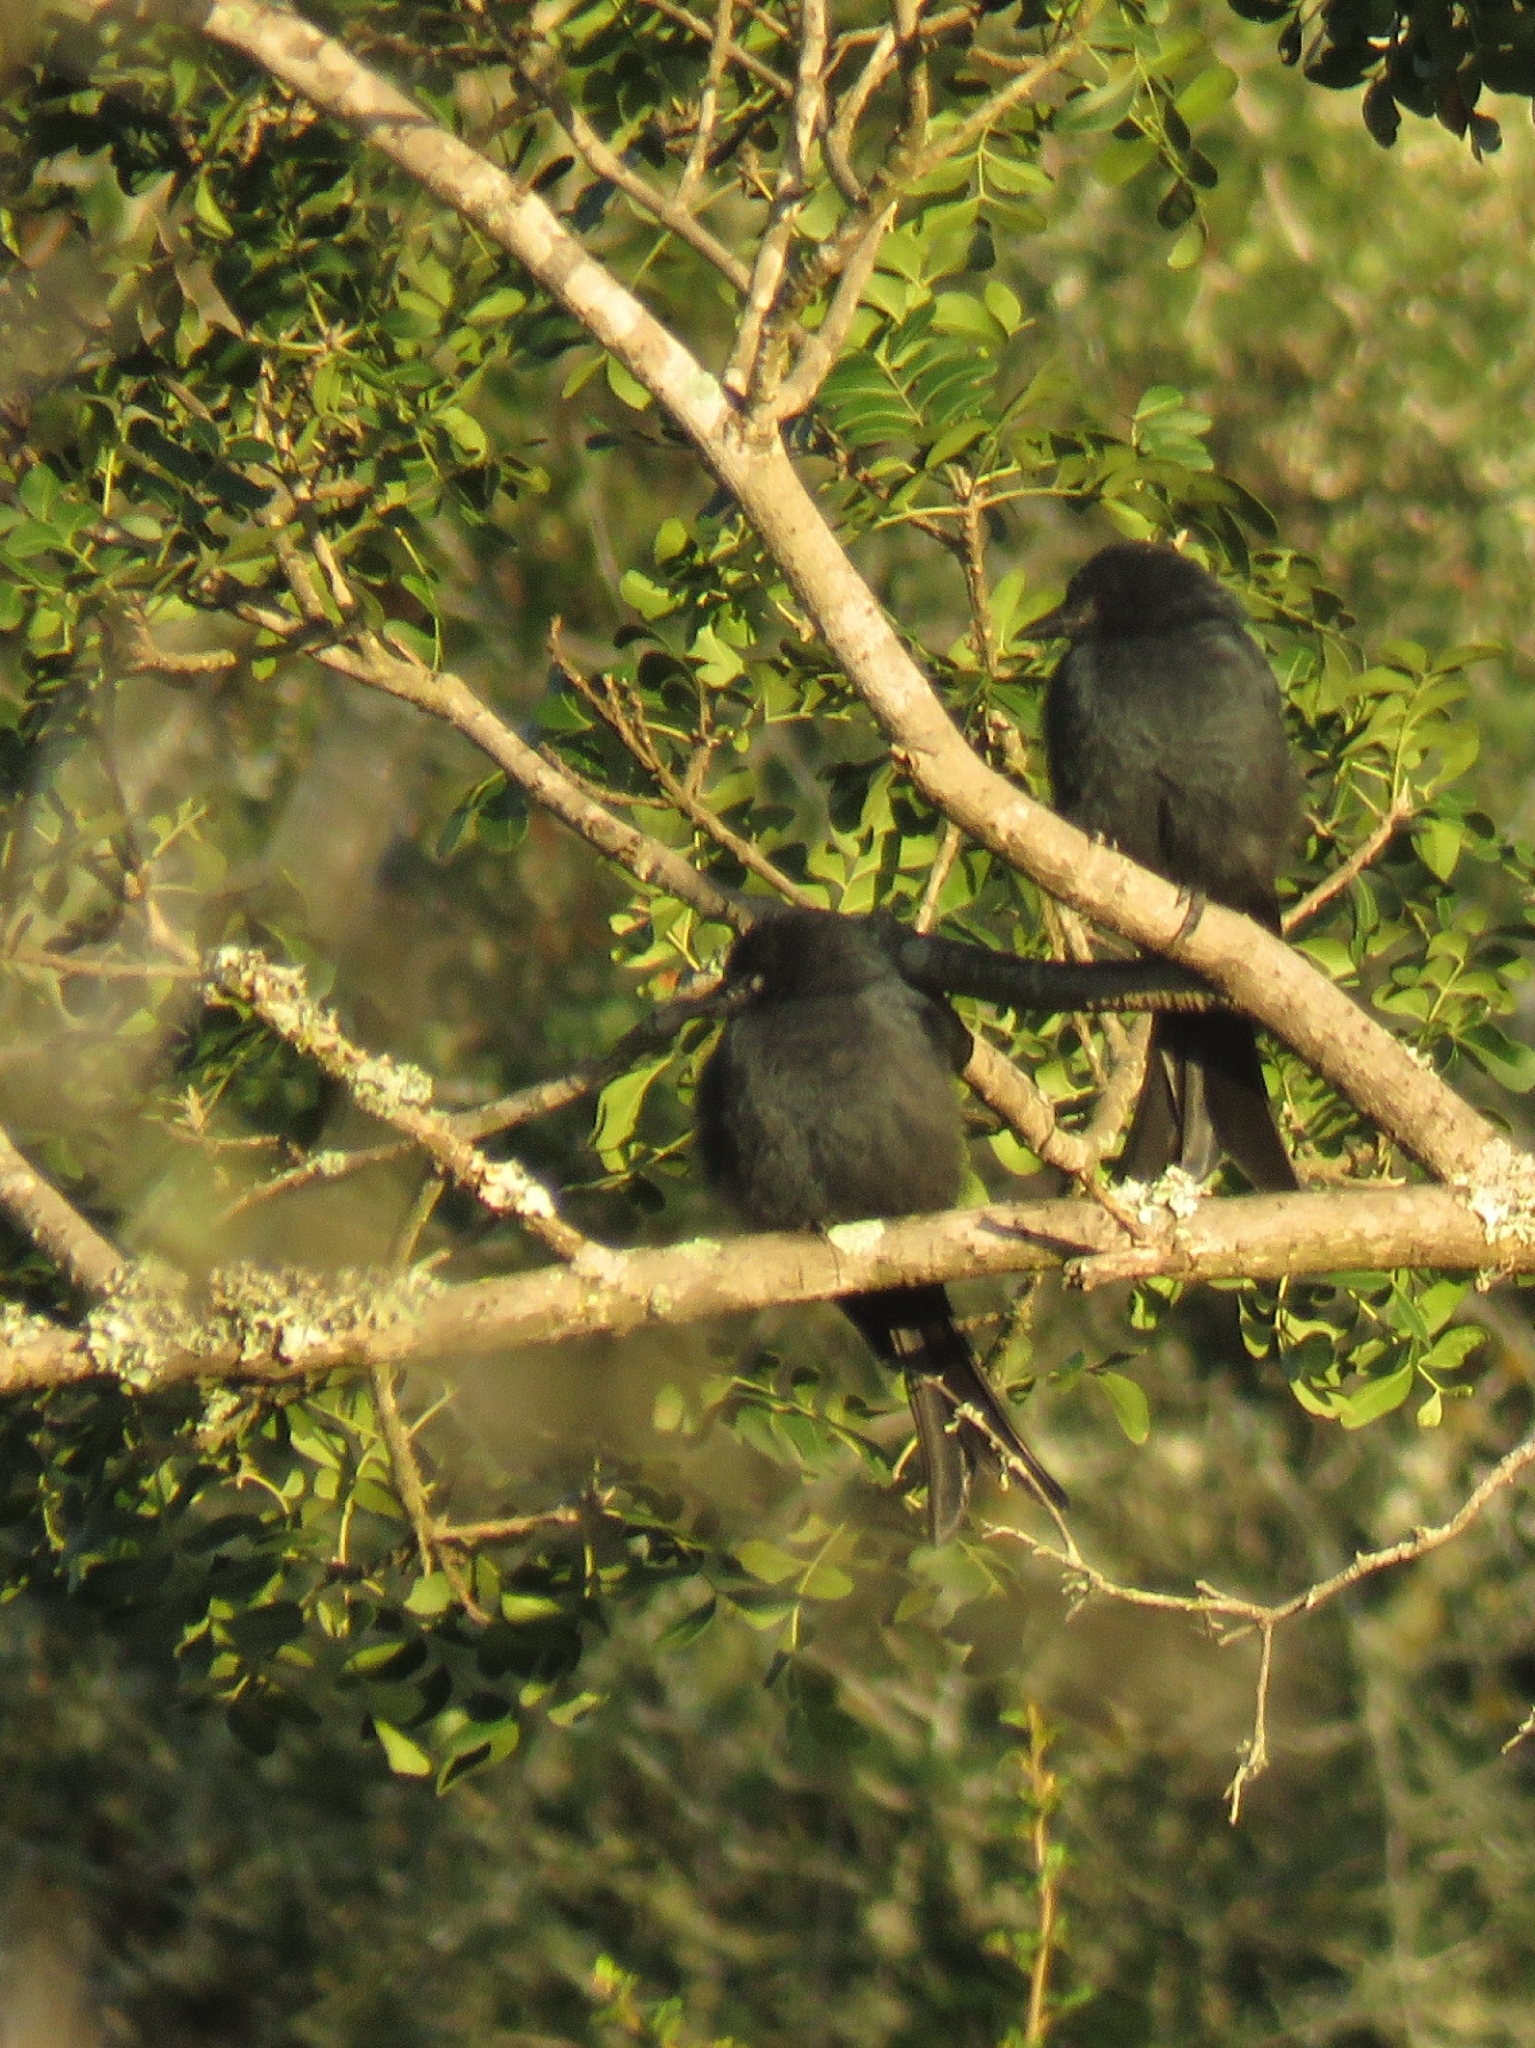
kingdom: Animalia
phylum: Chordata
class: Aves
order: Passeriformes
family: Dicruridae
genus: Dicrurus
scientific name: Dicrurus adsimilis
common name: Fork-tailed drongo
